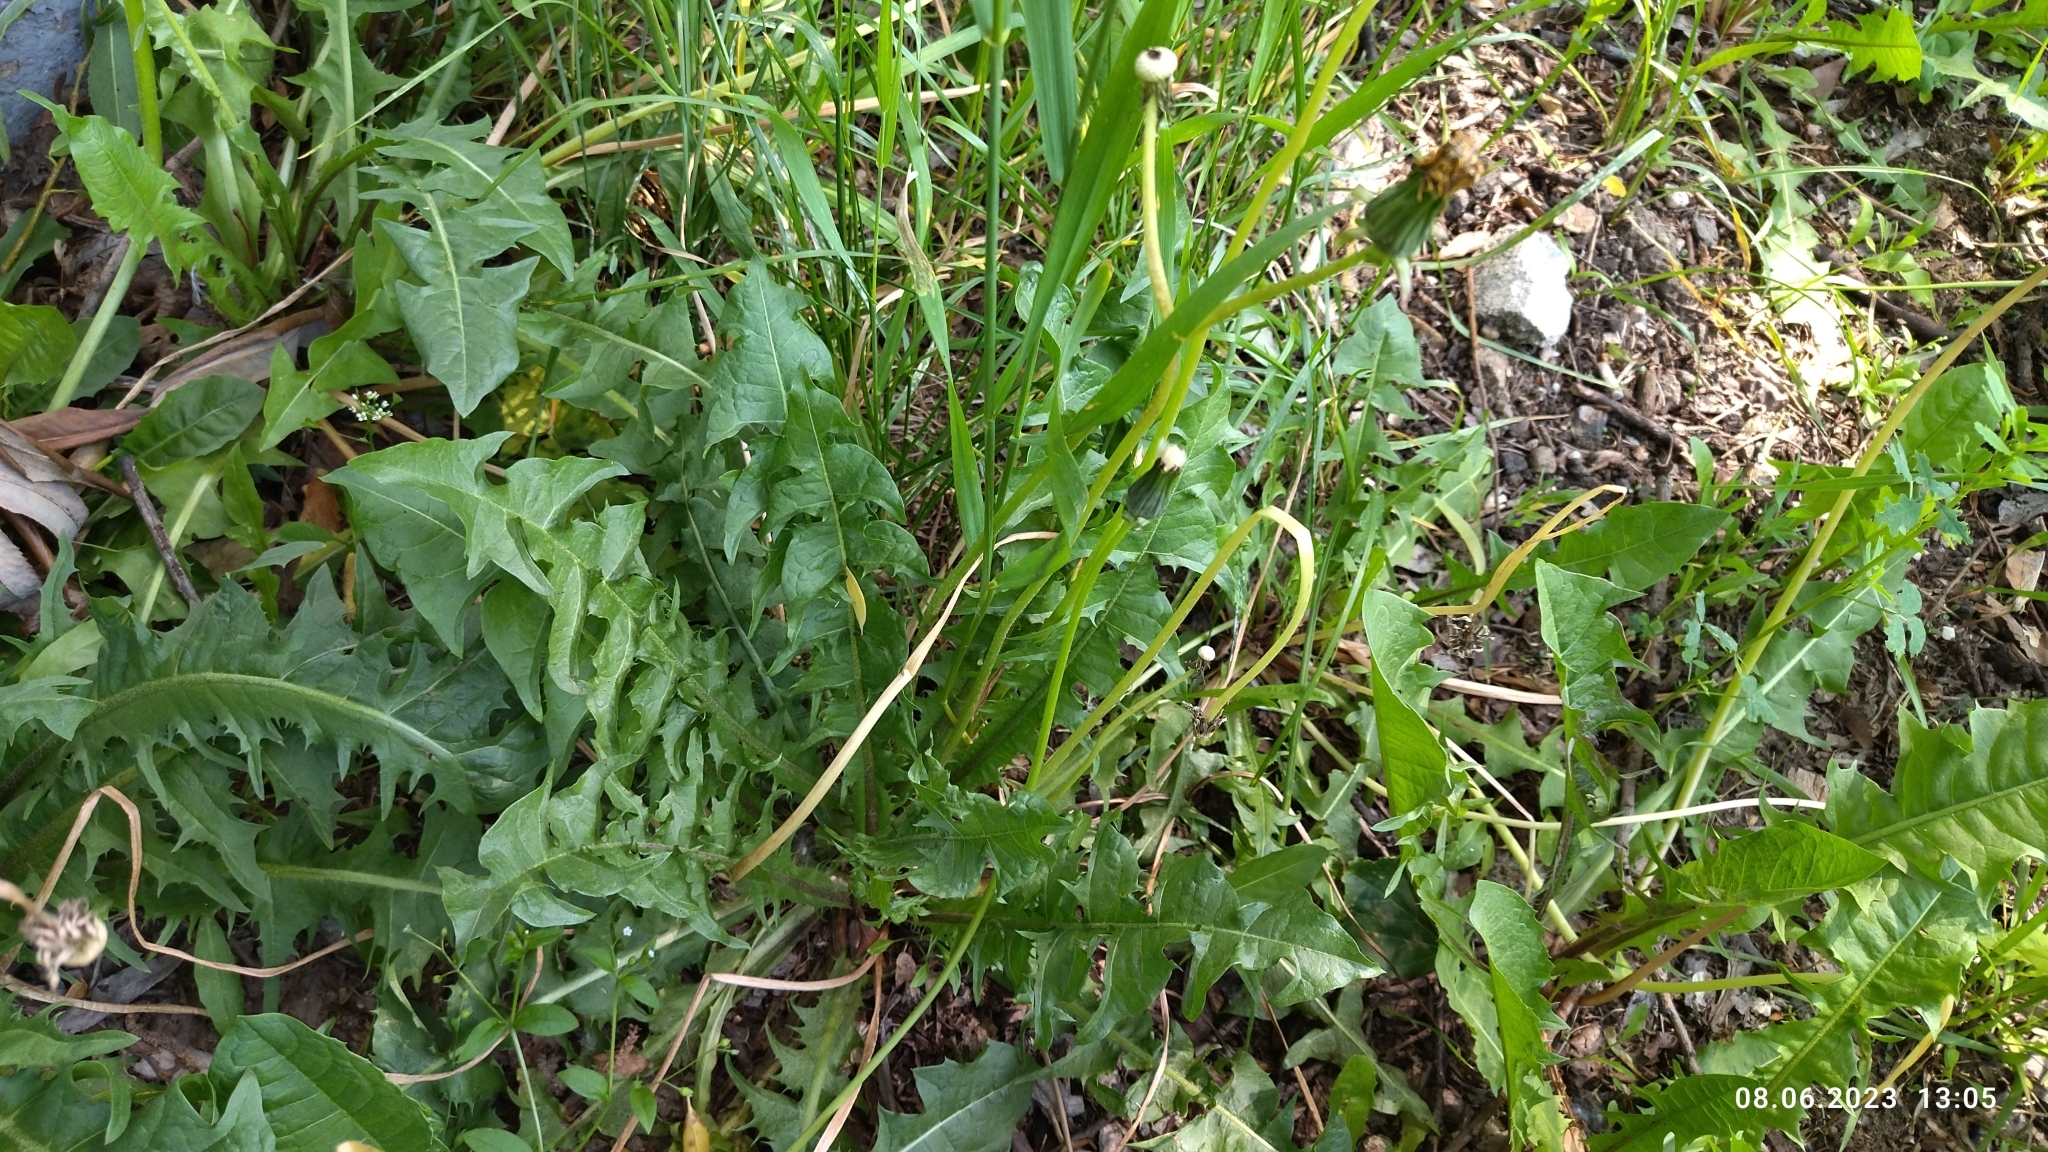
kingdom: Plantae
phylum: Tracheophyta
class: Magnoliopsida
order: Asterales
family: Asteraceae
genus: Taraxacum
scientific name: Taraxacum officinale
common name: Common dandelion
